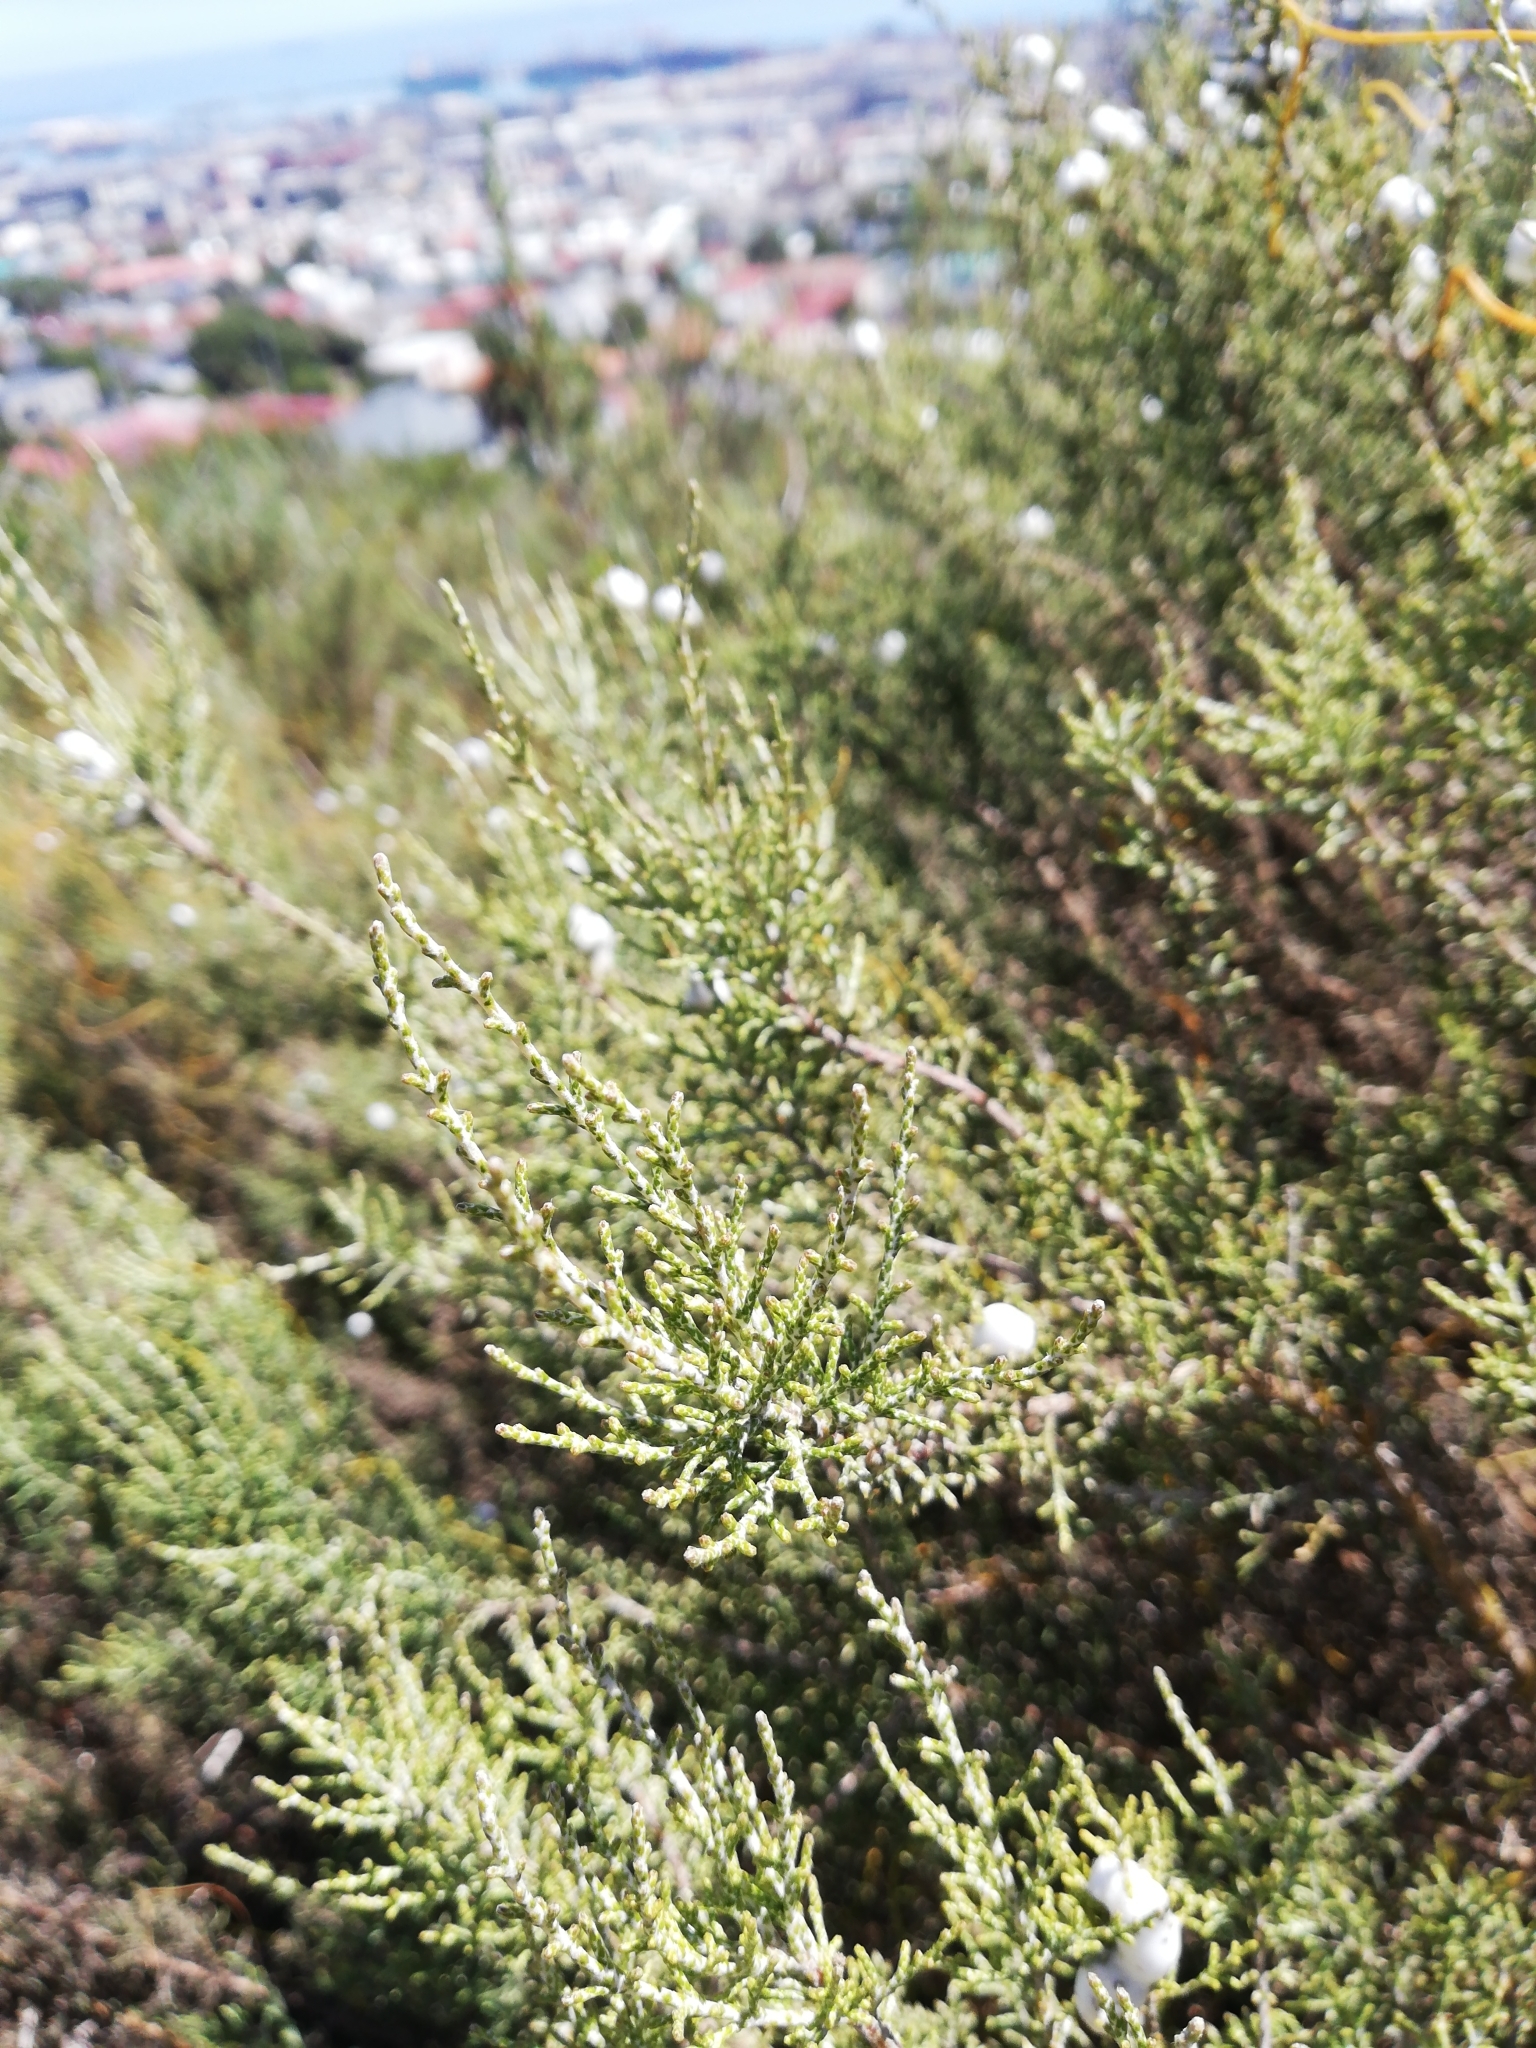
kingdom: Plantae
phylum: Tracheophyta
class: Magnoliopsida
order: Asterales
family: Asteraceae
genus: Dicerothamnus
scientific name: Dicerothamnus rhinocerotis
